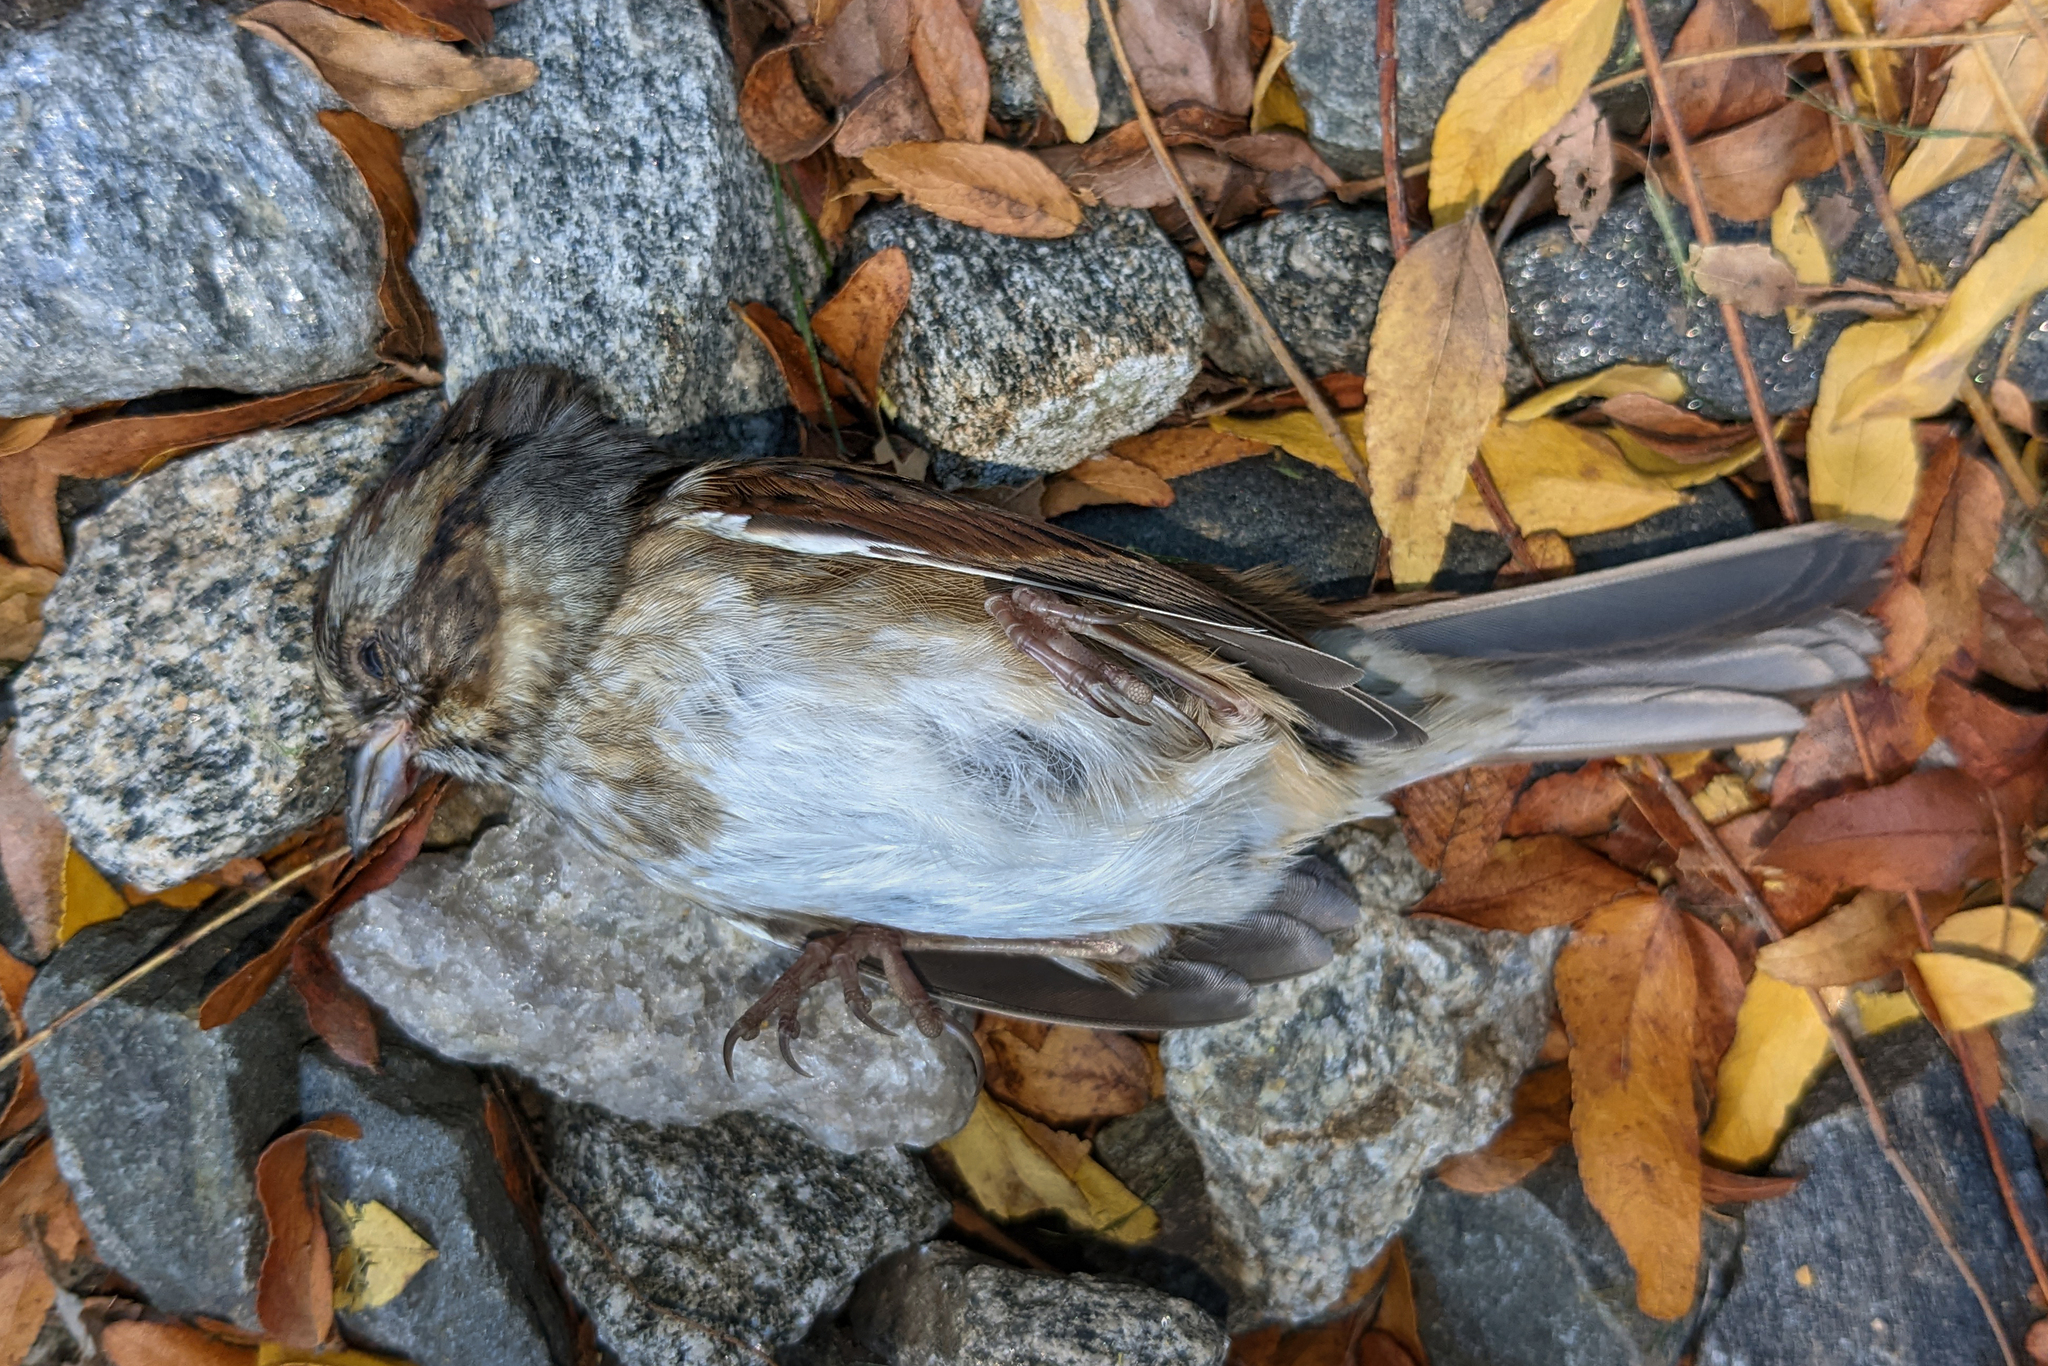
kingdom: Animalia
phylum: Chordata
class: Aves
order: Passeriformes
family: Passerellidae
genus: Melospiza
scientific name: Melospiza georgiana
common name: Swamp sparrow
